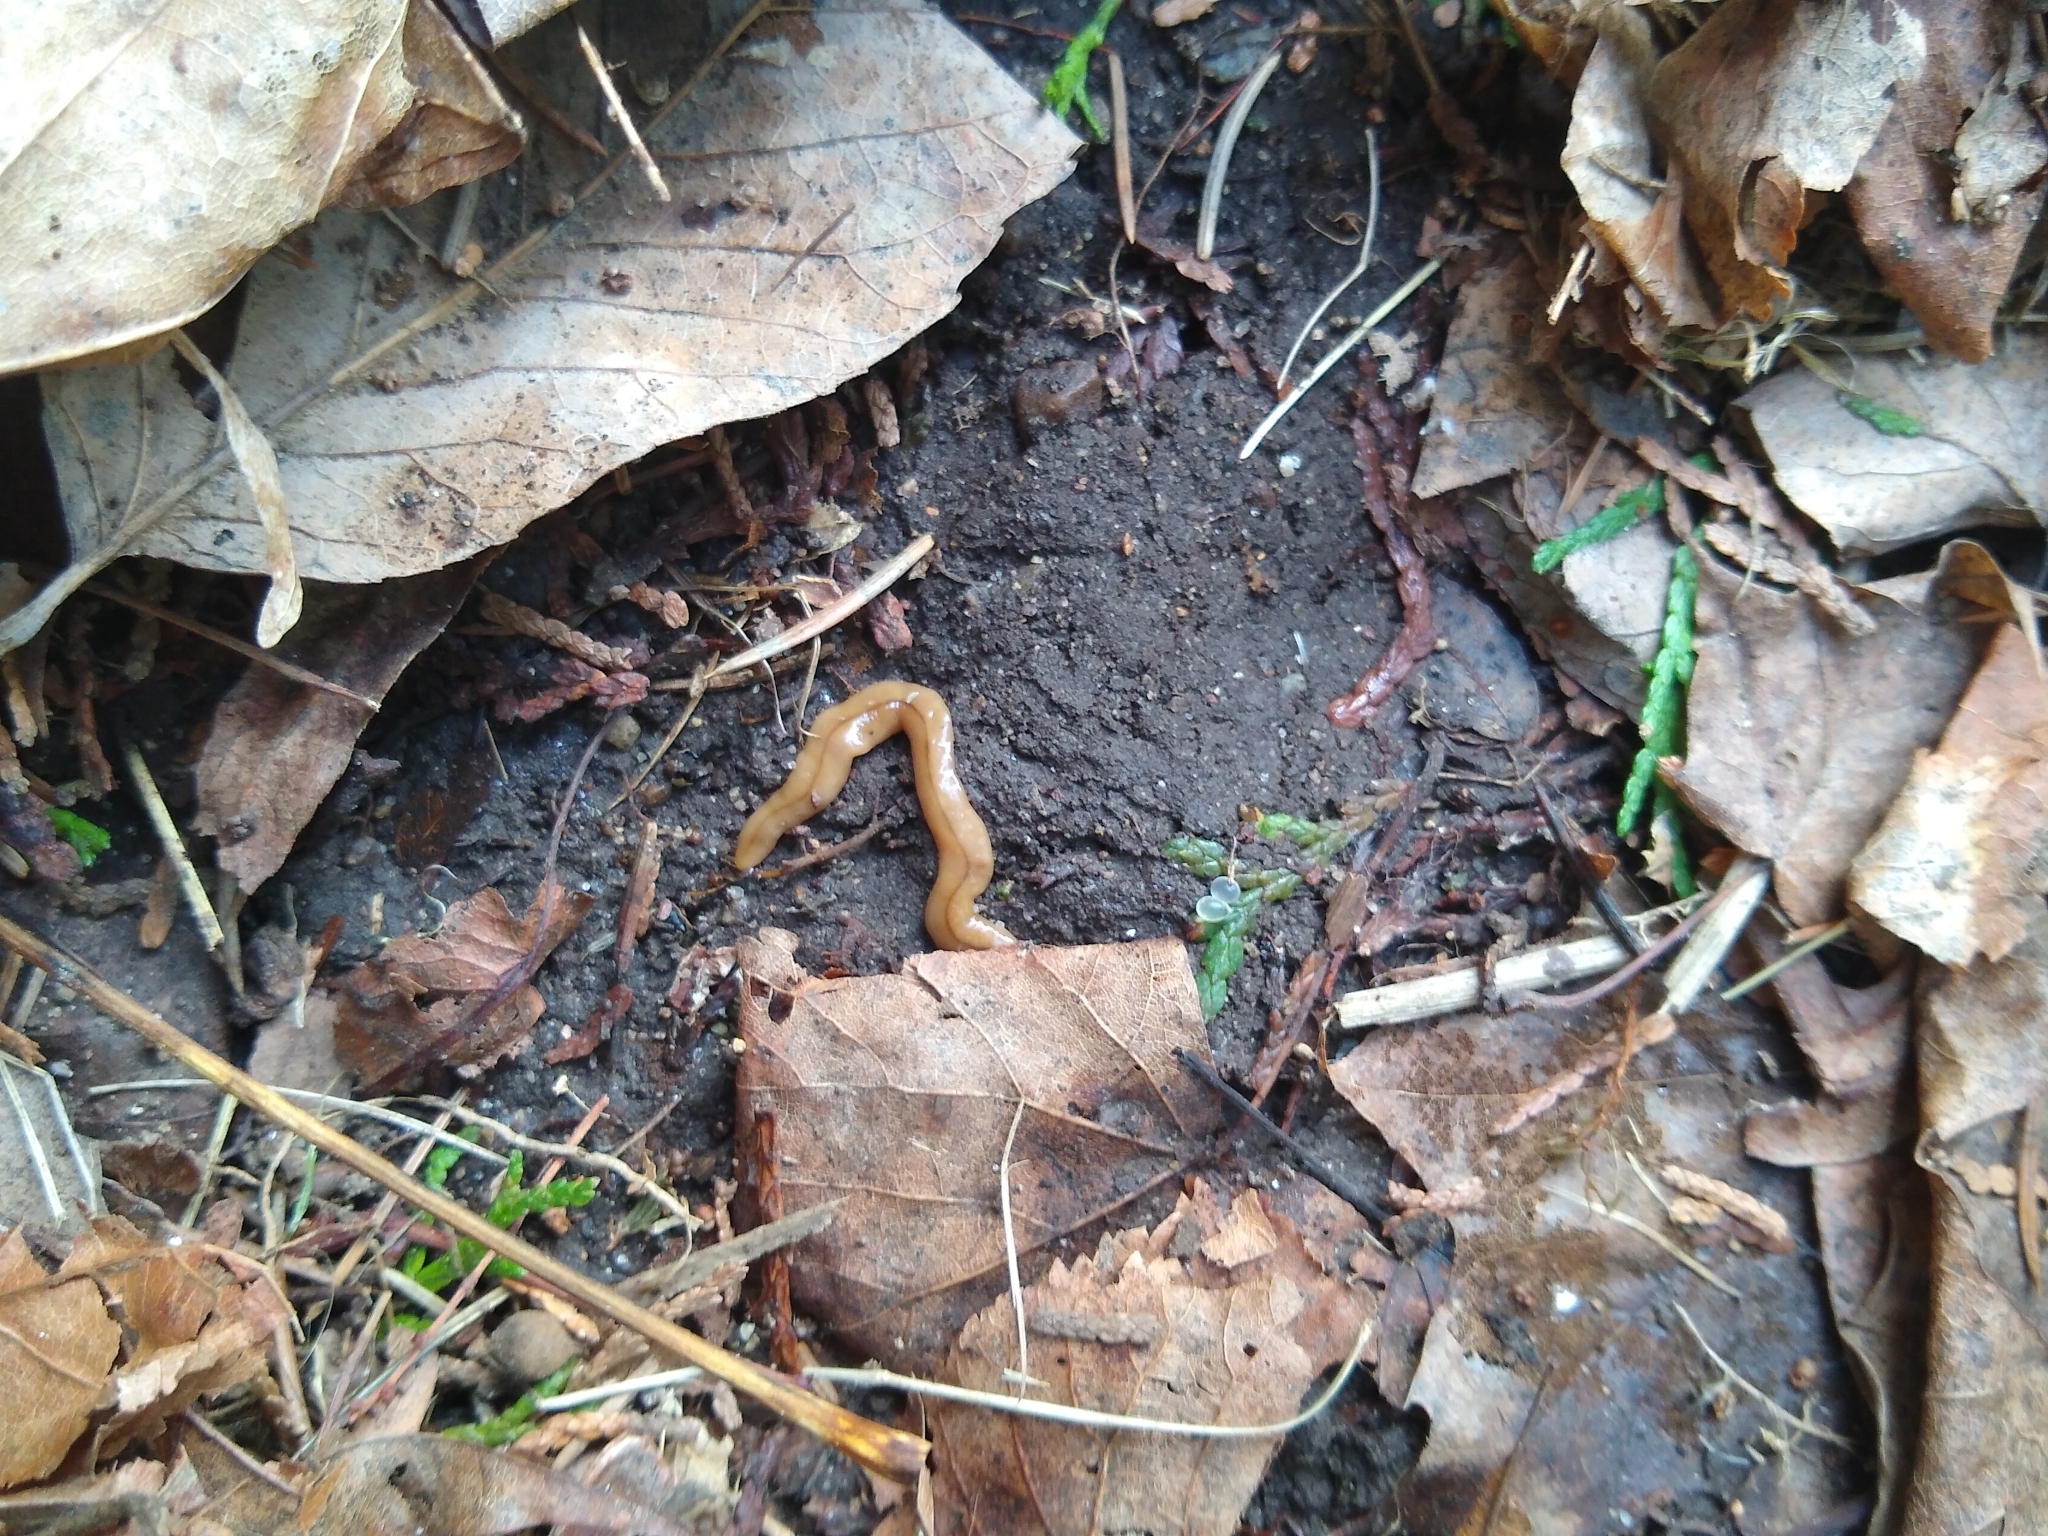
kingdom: Animalia
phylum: Platyhelminthes
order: Tricladida
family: Geoplanidae
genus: Bipalium
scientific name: Bipalium adventitium
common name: Land planarian
